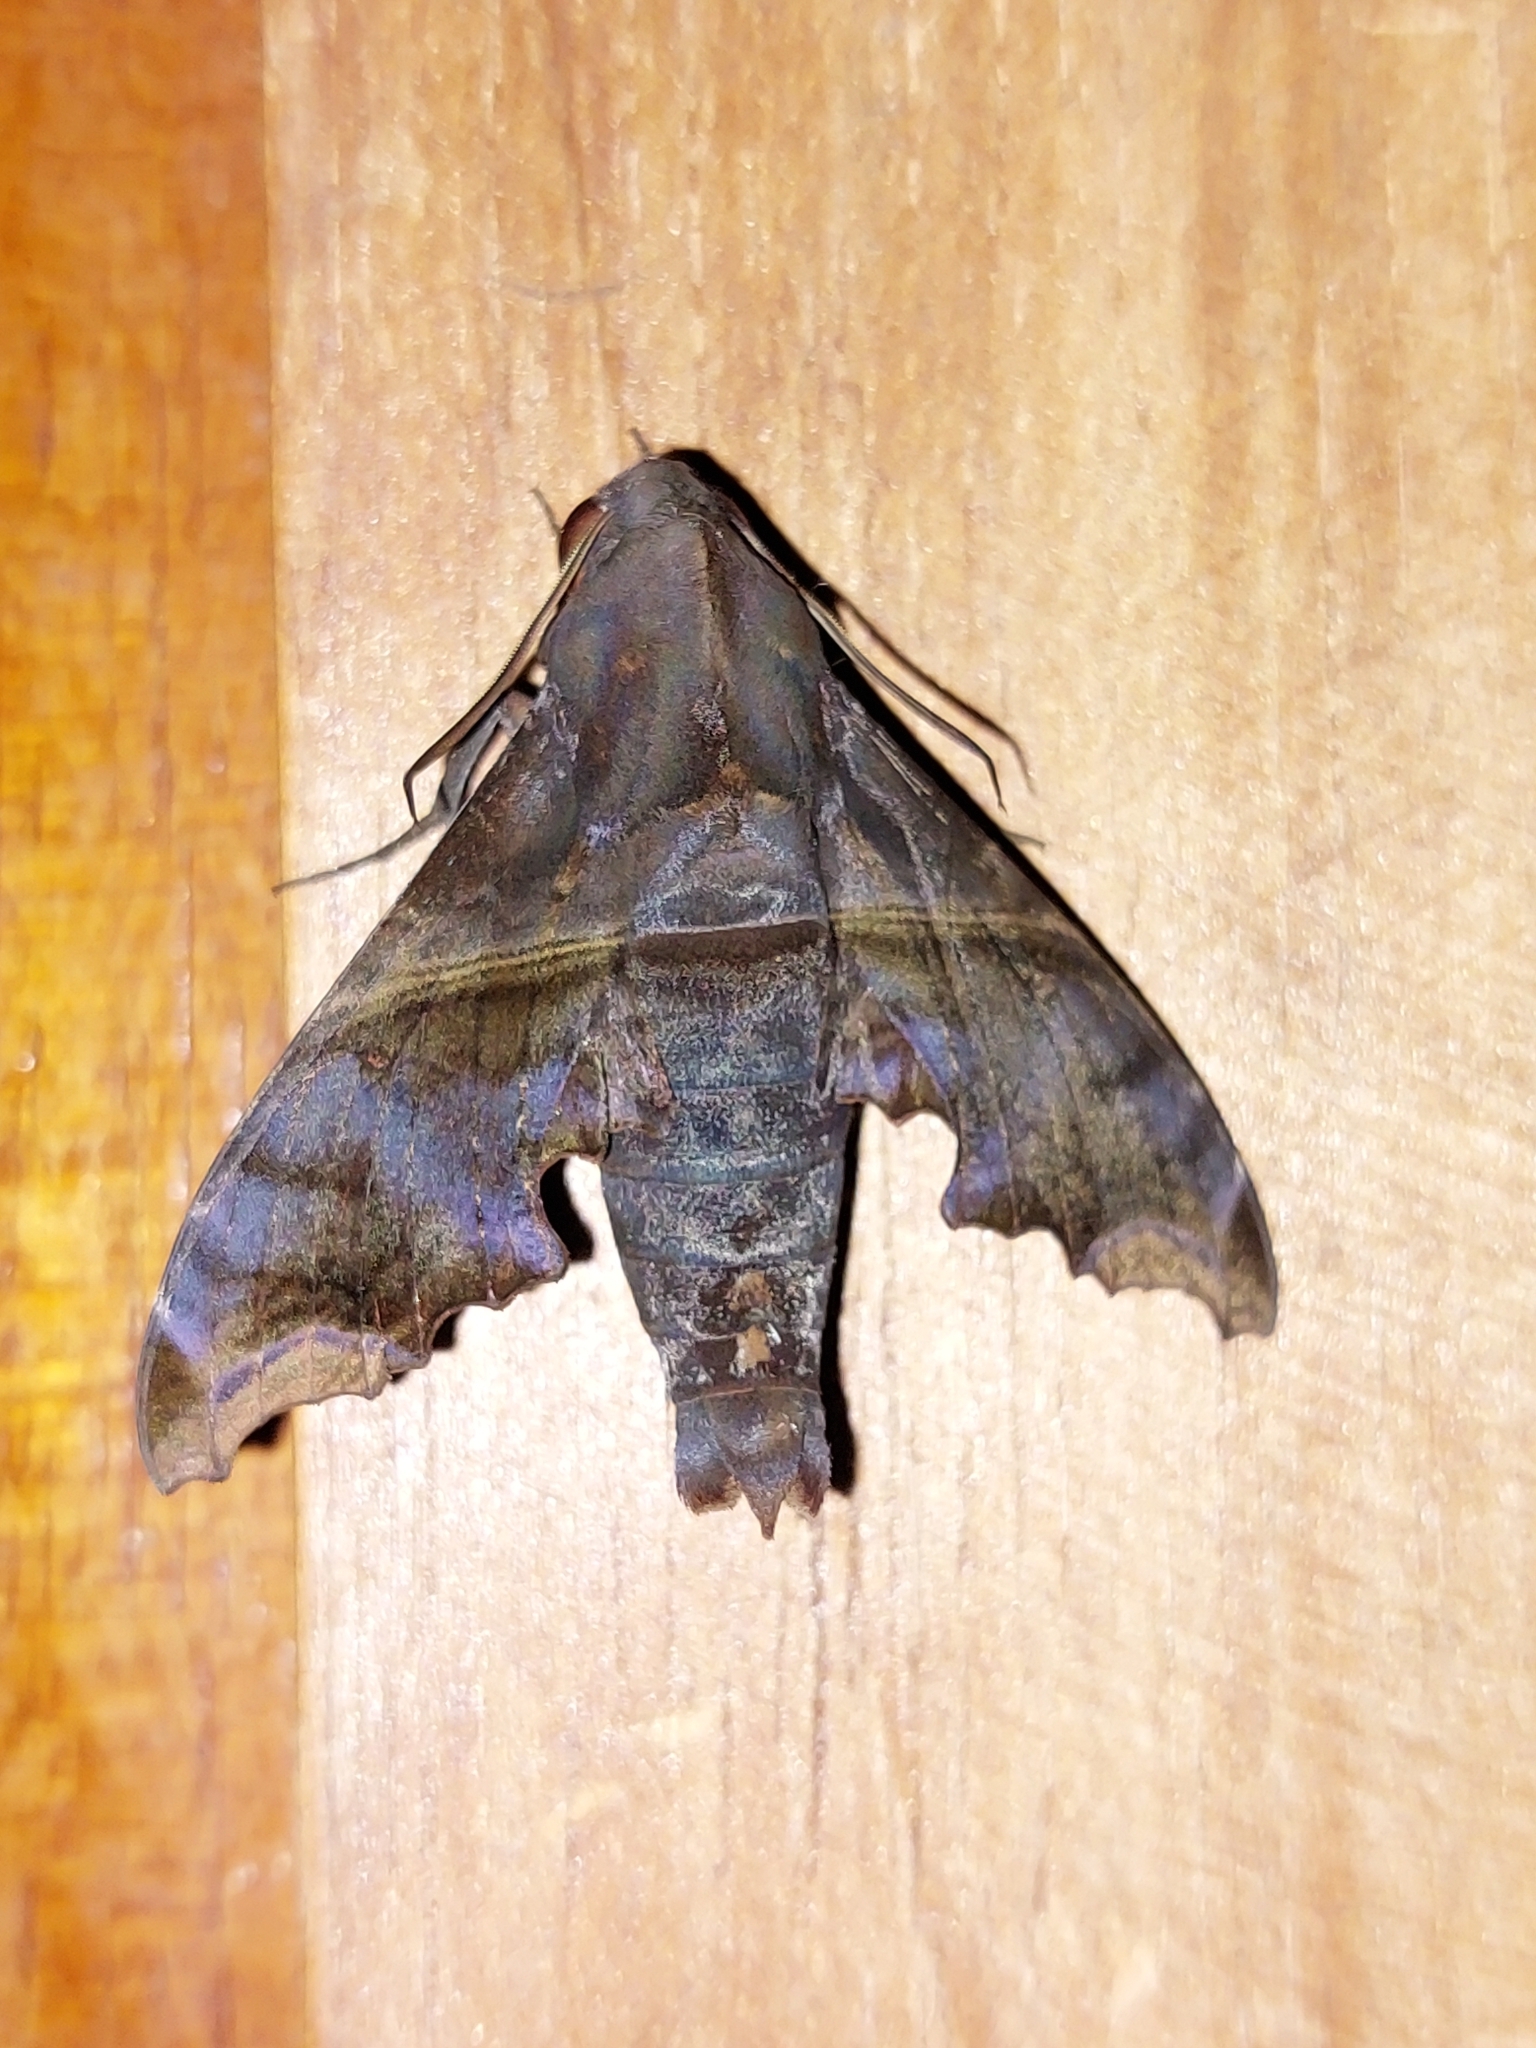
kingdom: Animalia
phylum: Arthropoda
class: Insecta
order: Lepidoptera
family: Sphingidae
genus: Enyo
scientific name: Enyo ocypete
